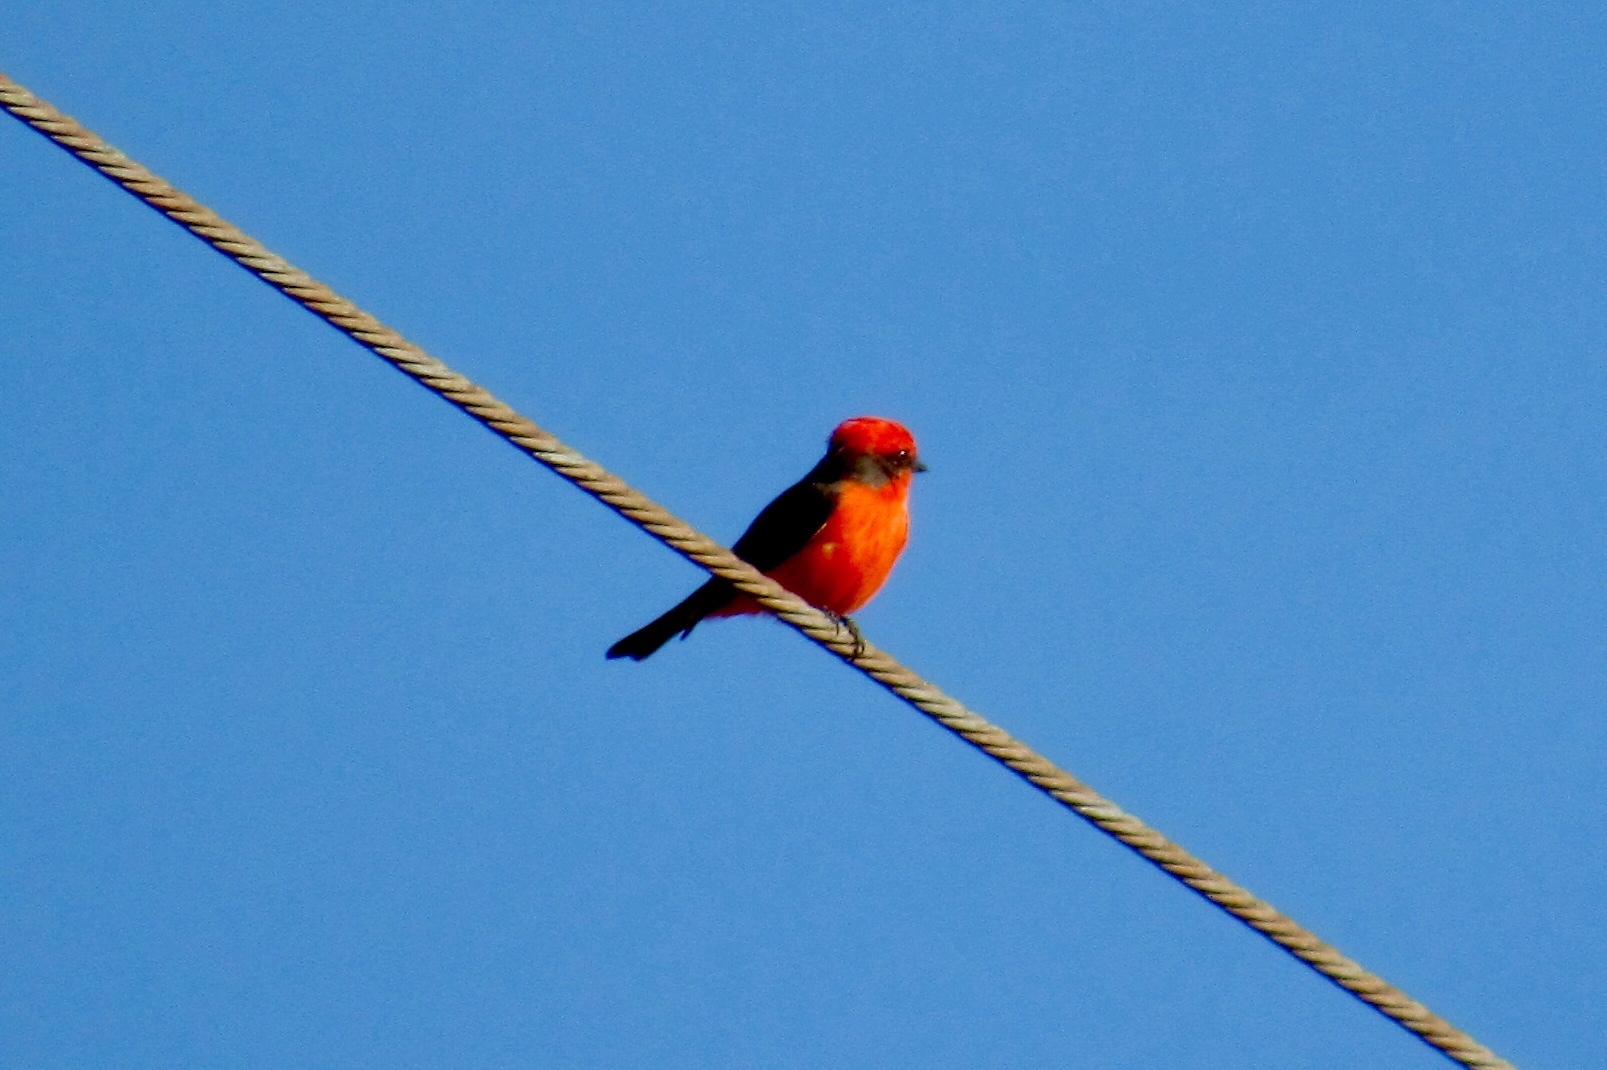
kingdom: Animalia
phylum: Chordata
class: Aves
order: Passeriformes
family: Tyrannidae
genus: Pyrocephalus
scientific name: Pyrocephalus rubinus
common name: Vermilion flycatcher
